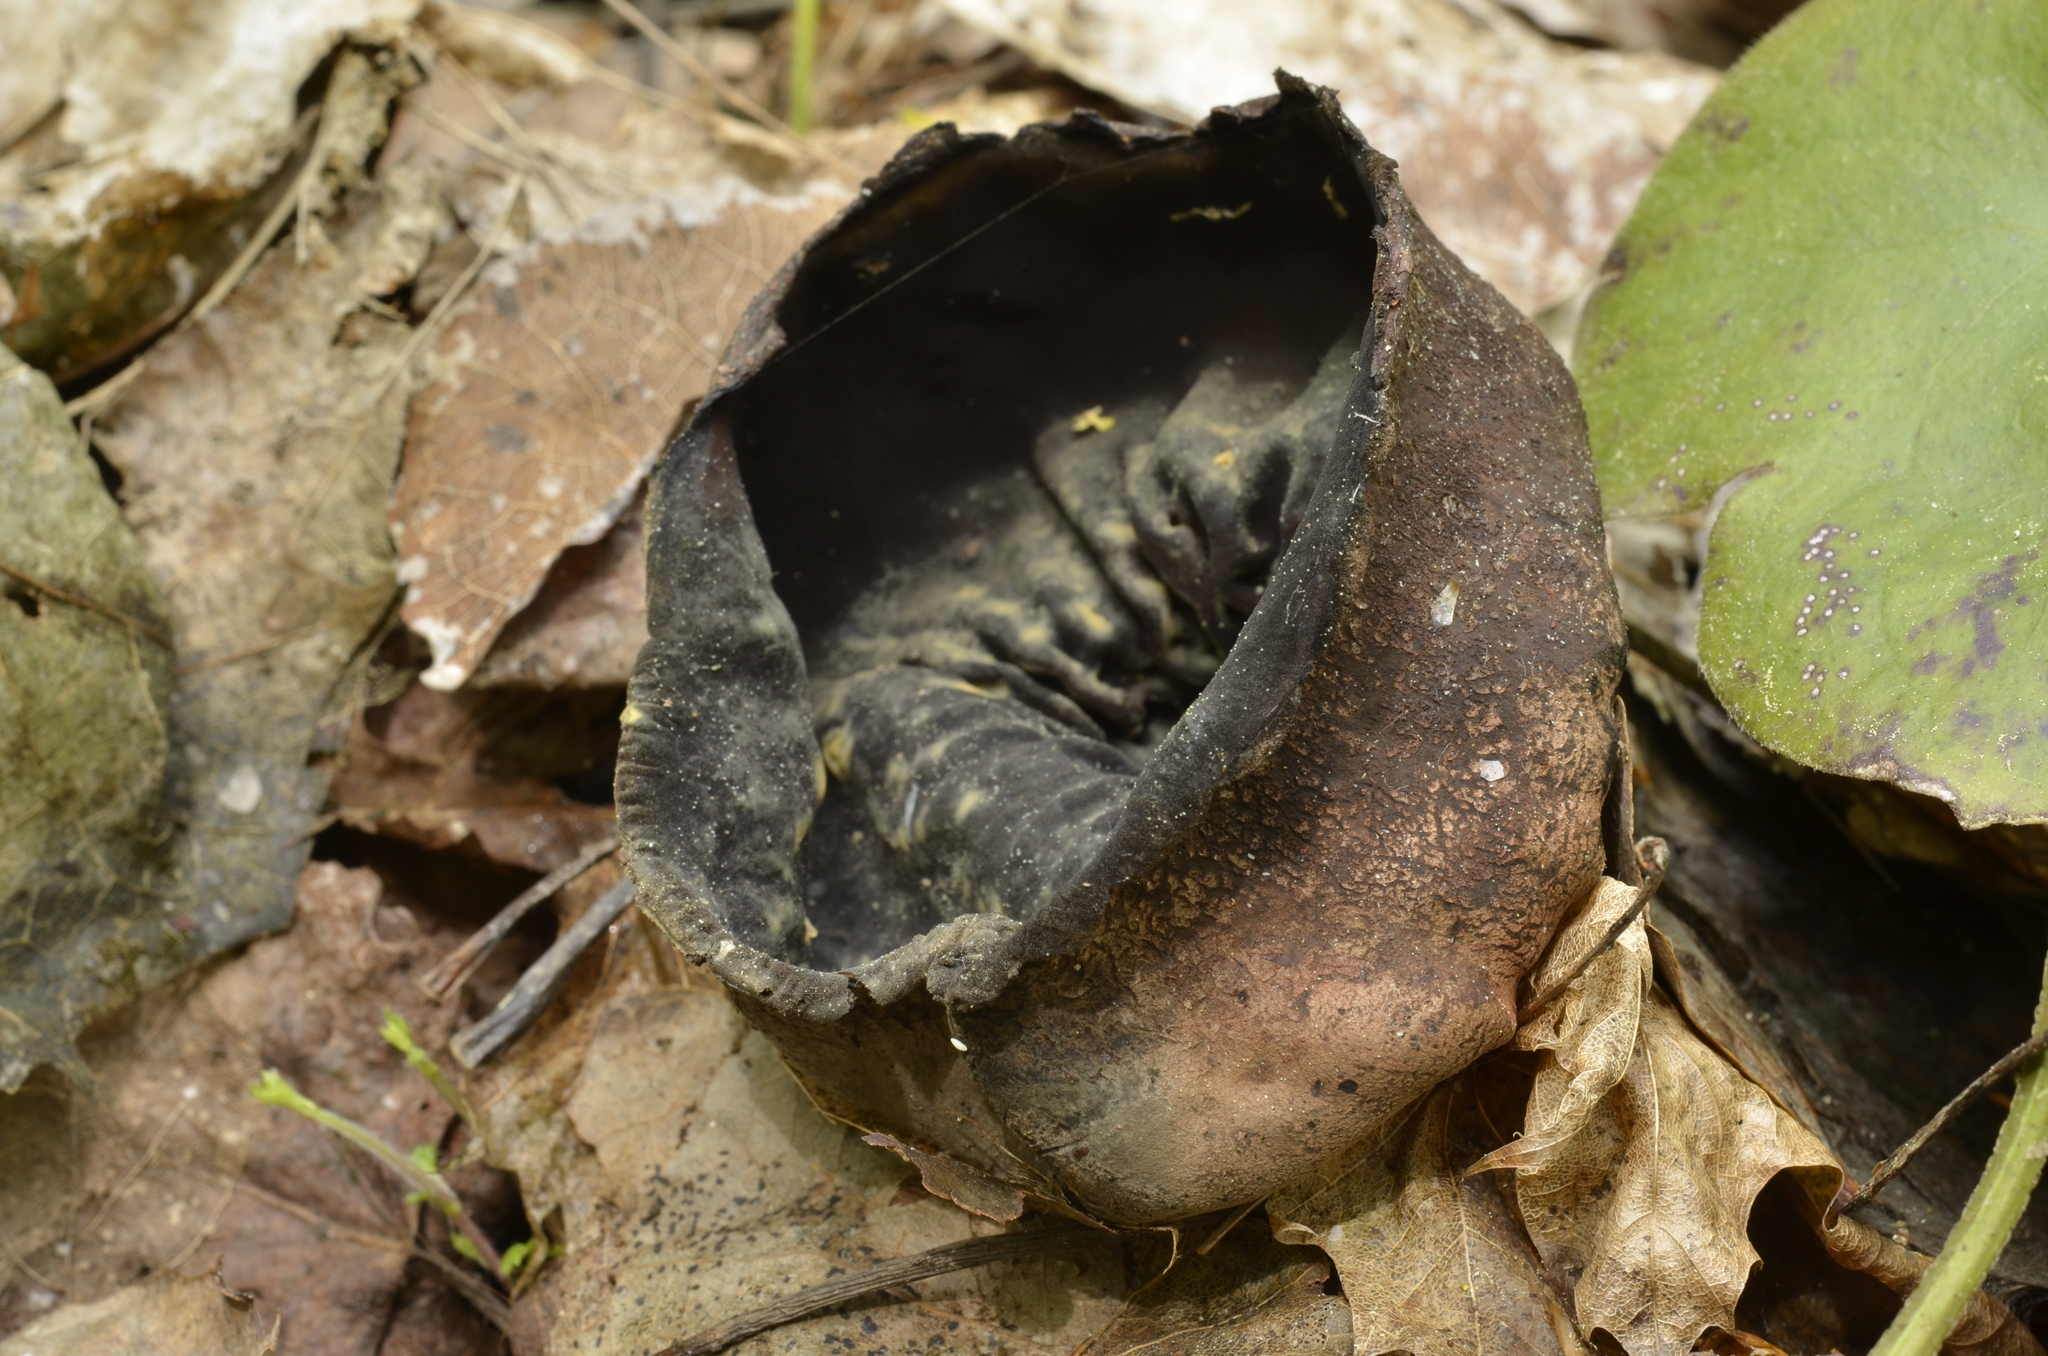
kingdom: Fungi
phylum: Ascomycota
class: Pezizomycetes
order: Pezizales
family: Sarcosomataceae
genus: Urnula
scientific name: Urnula craterium
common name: Devil's urn
